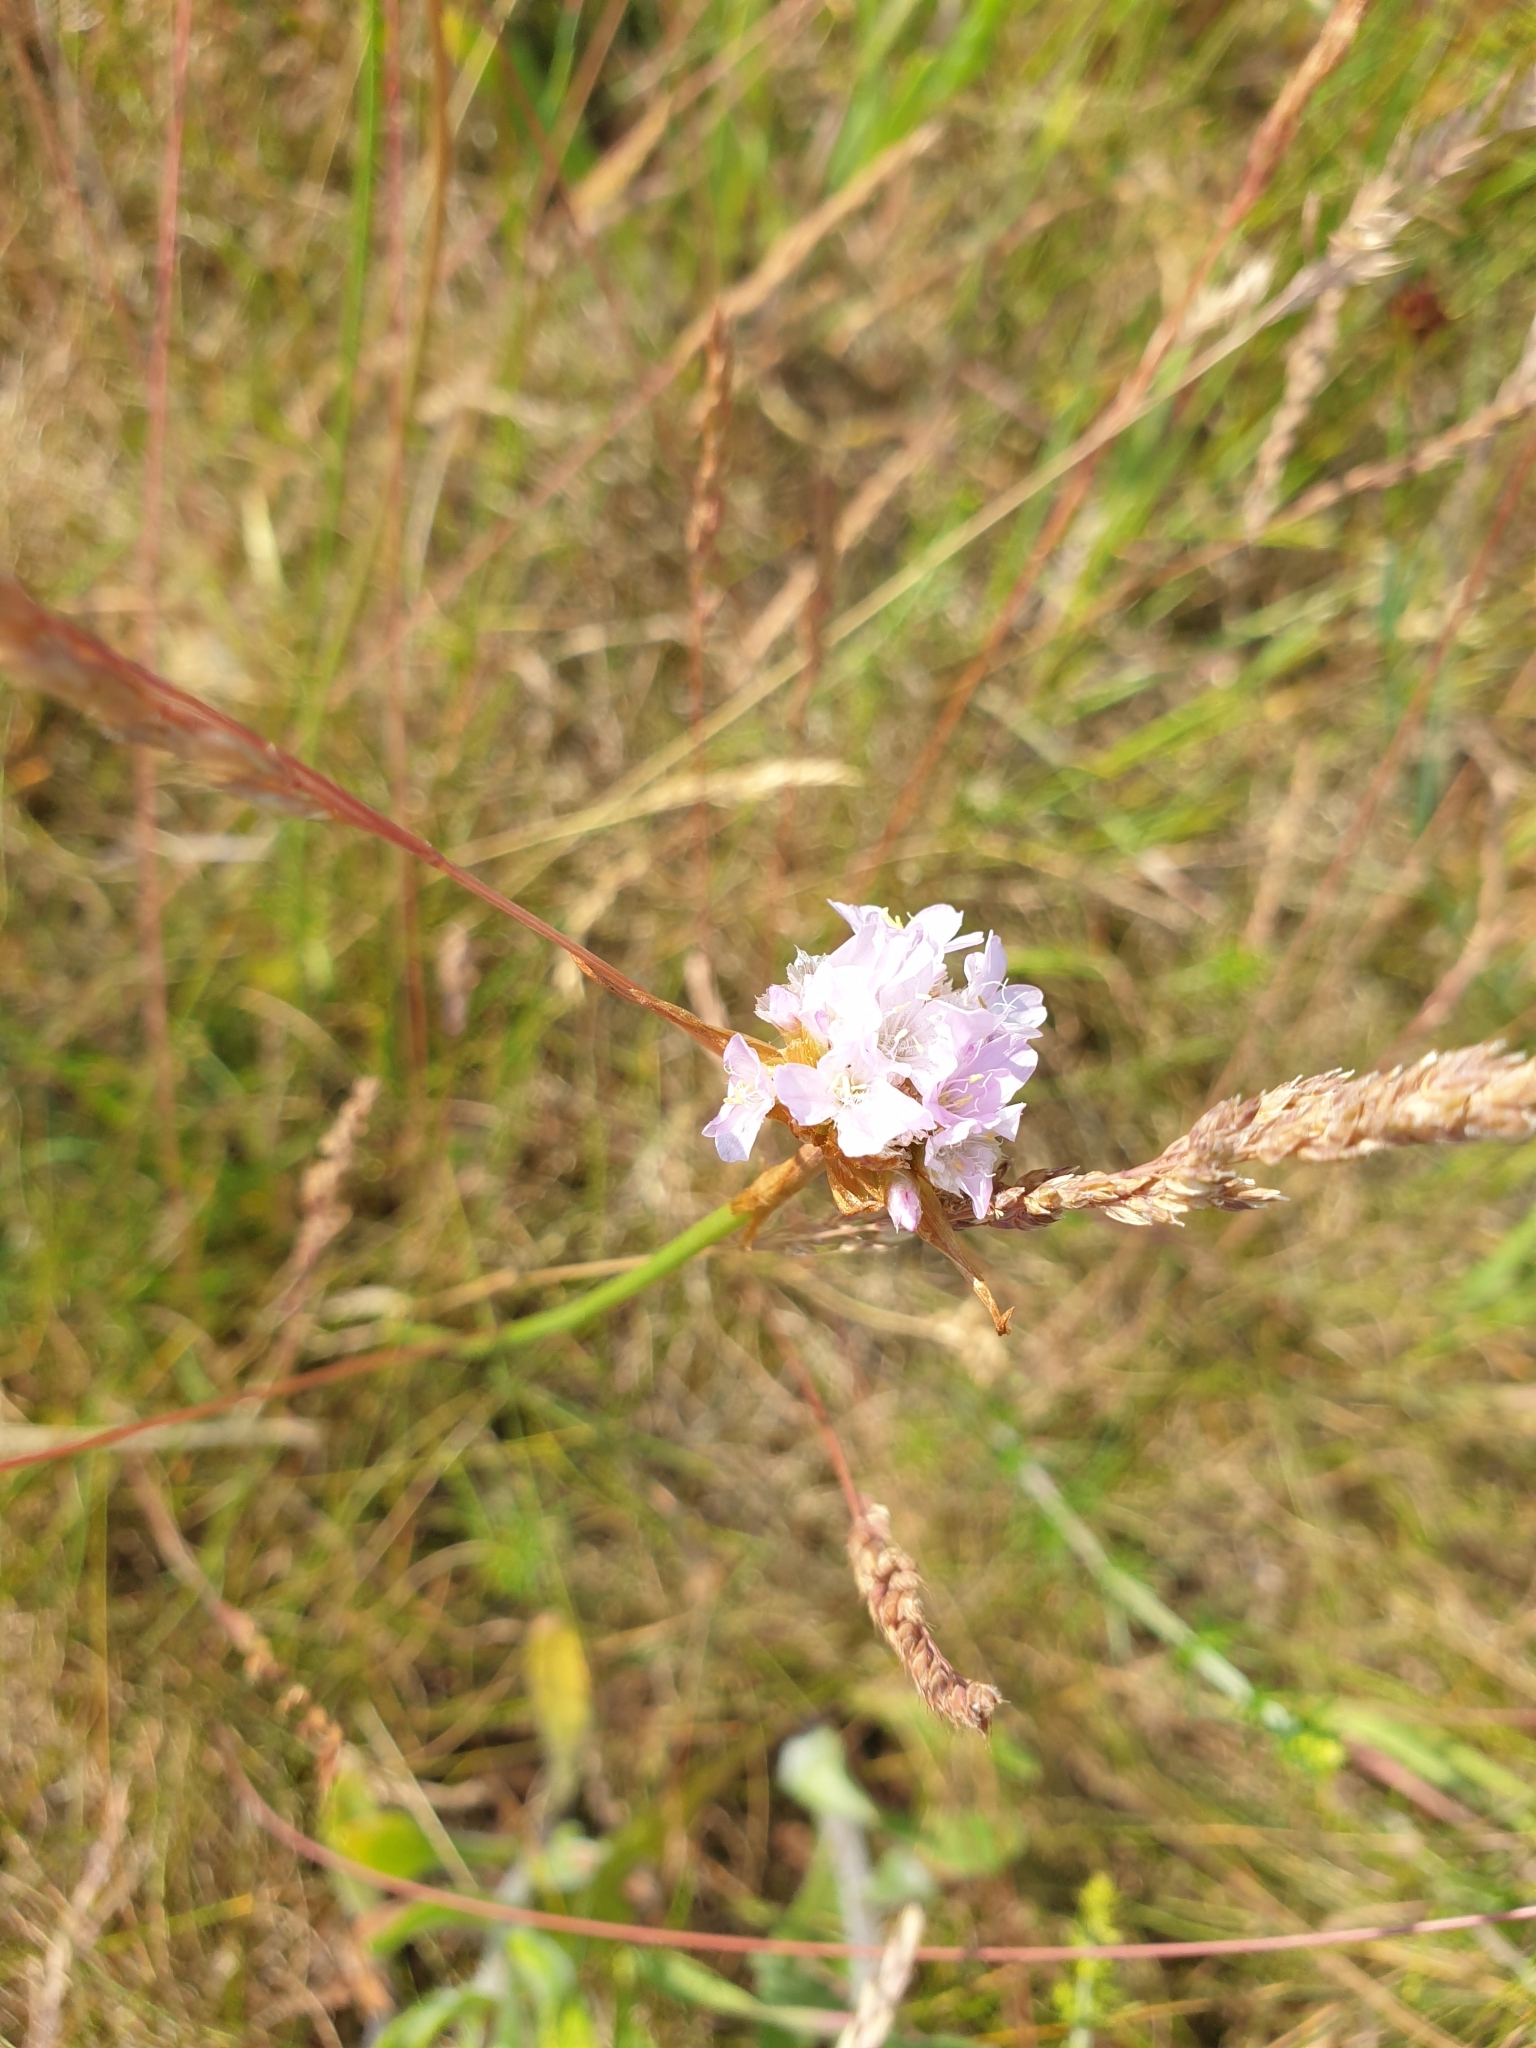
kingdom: Plantae
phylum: Tracheophyta
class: Magnoliopsida
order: Caryophyllales
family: Plumbaginaceae
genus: Armeria
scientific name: Armeria maritima
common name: Thrift
